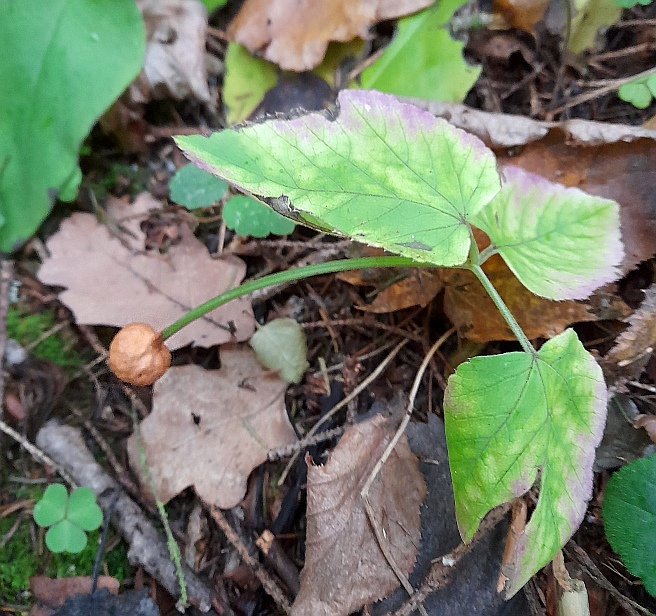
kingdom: Plantae
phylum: Tracheophyta
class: Magnoliopsida
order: Apiales
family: Apiaceae
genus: Aegopodium
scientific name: Aegopodium podagraria
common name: Ground-elder
